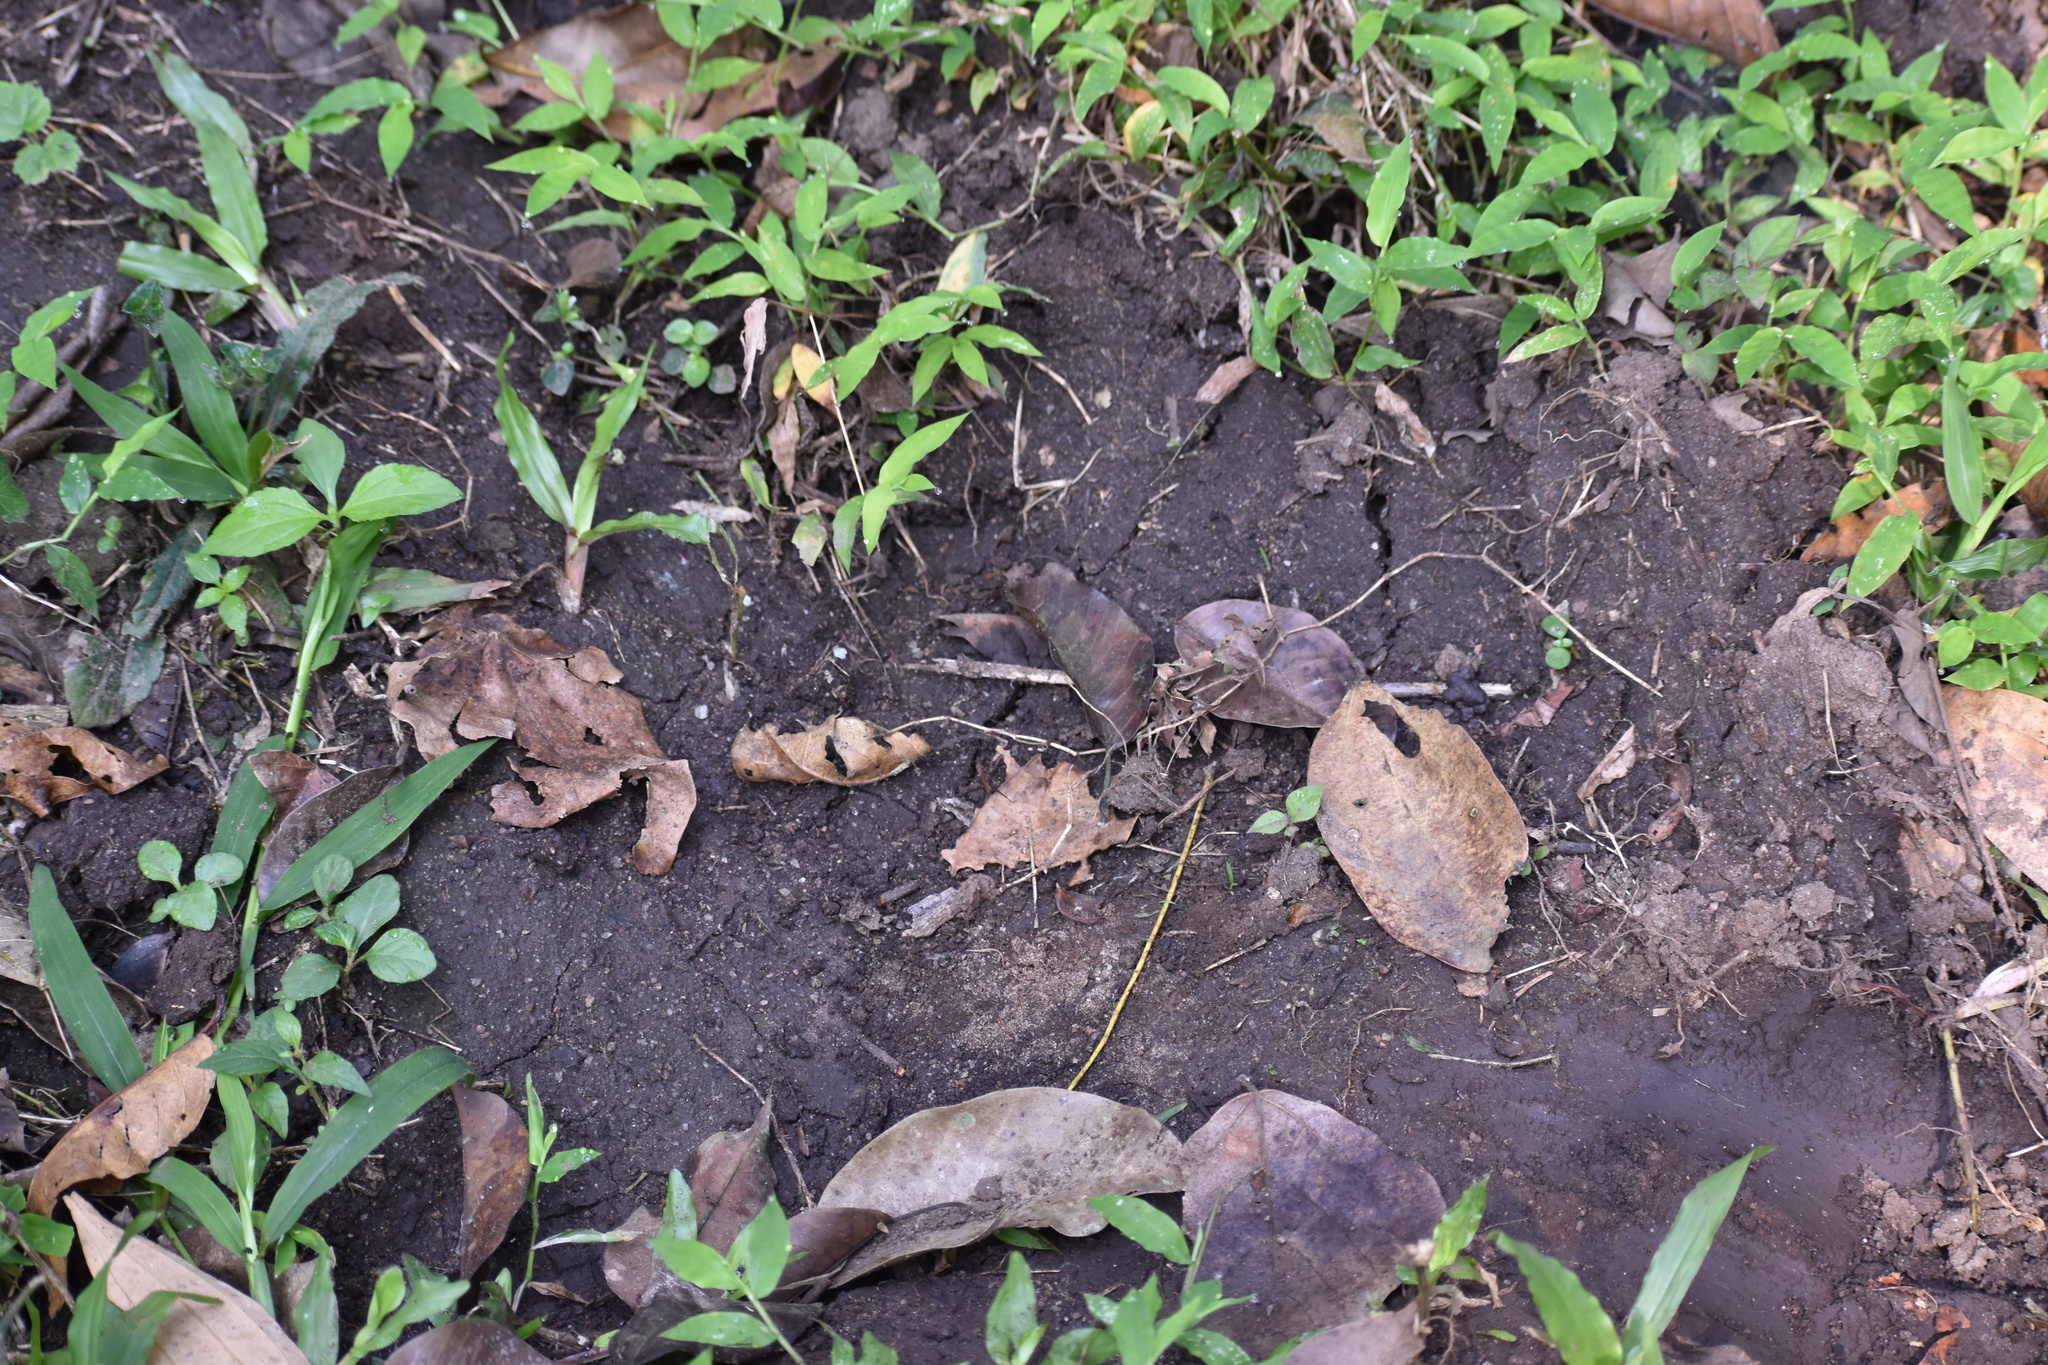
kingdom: Animalia
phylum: Chordata
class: Mammalia
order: Proboscidea
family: Elephantidae
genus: Elephas
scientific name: Elephas maximus
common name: Asian elephant
